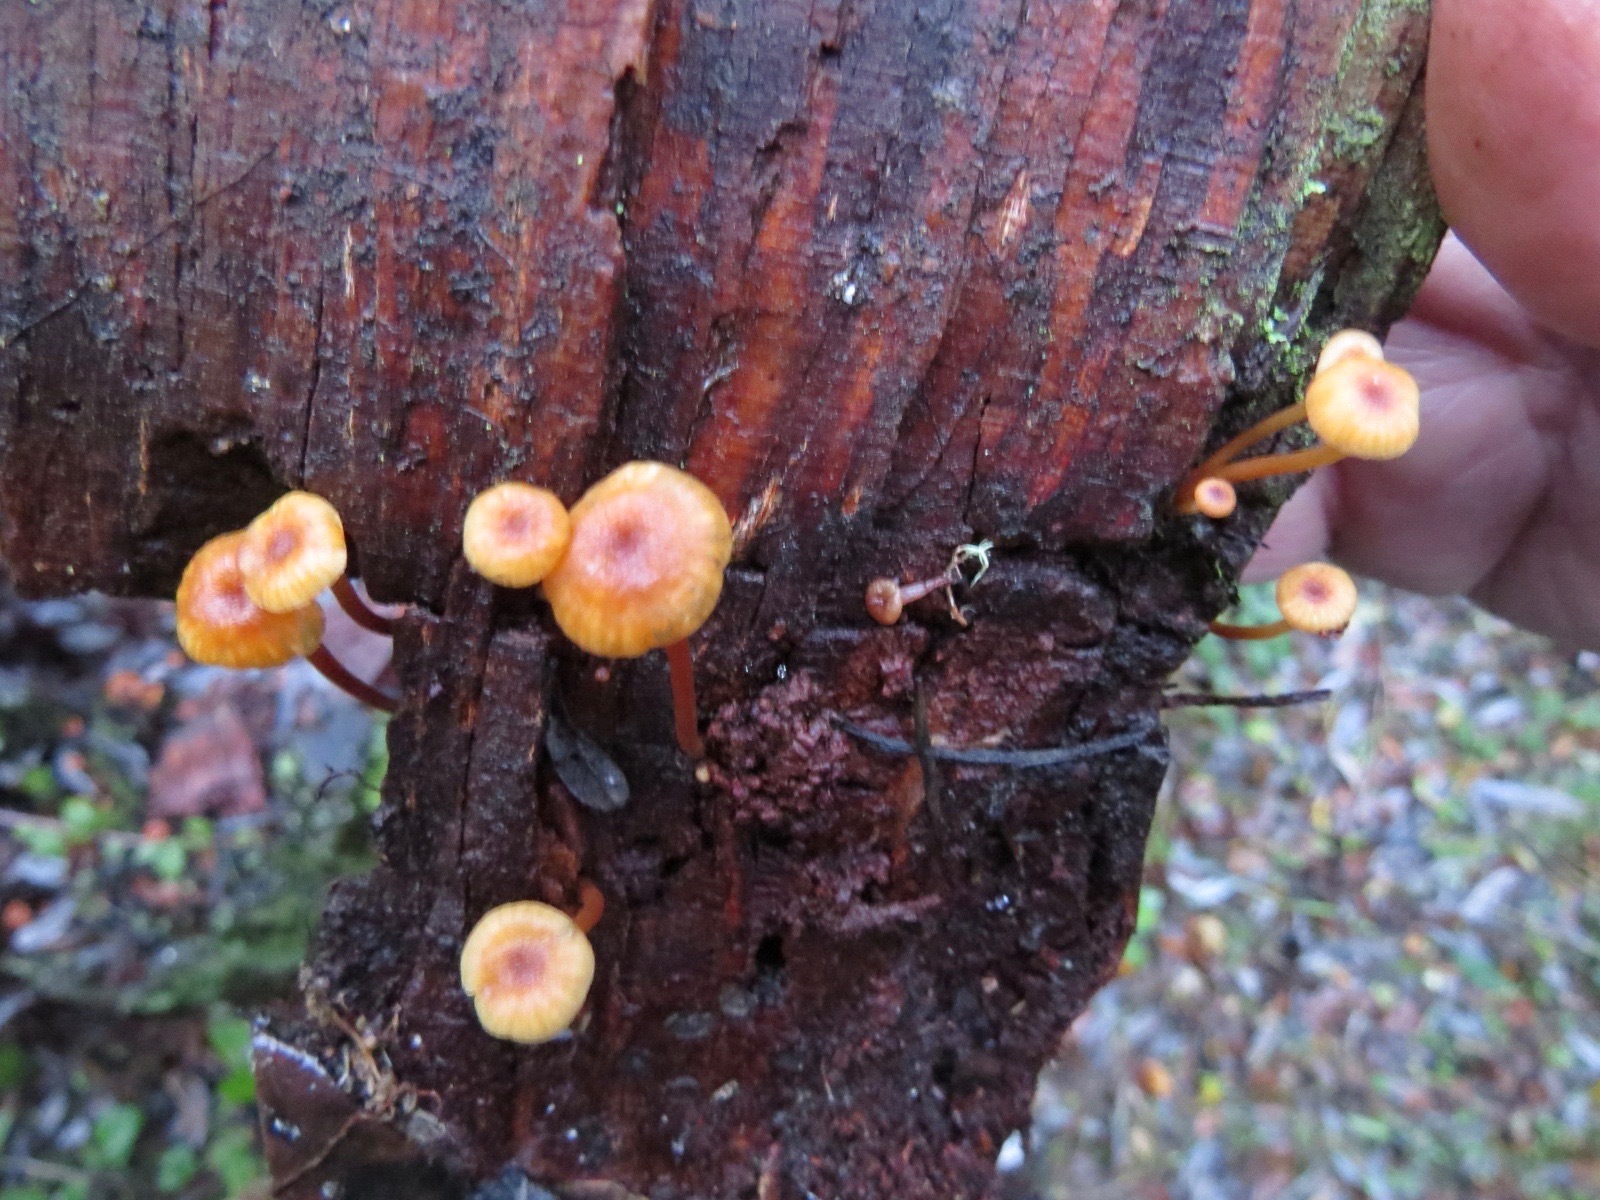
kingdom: Fungi
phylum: Basidiomycota
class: Agaricomycetes
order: Agaricales
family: Mycenaceae
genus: Xeromphalina
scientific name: Xeromphalina campanella
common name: Pinewood gingertail
